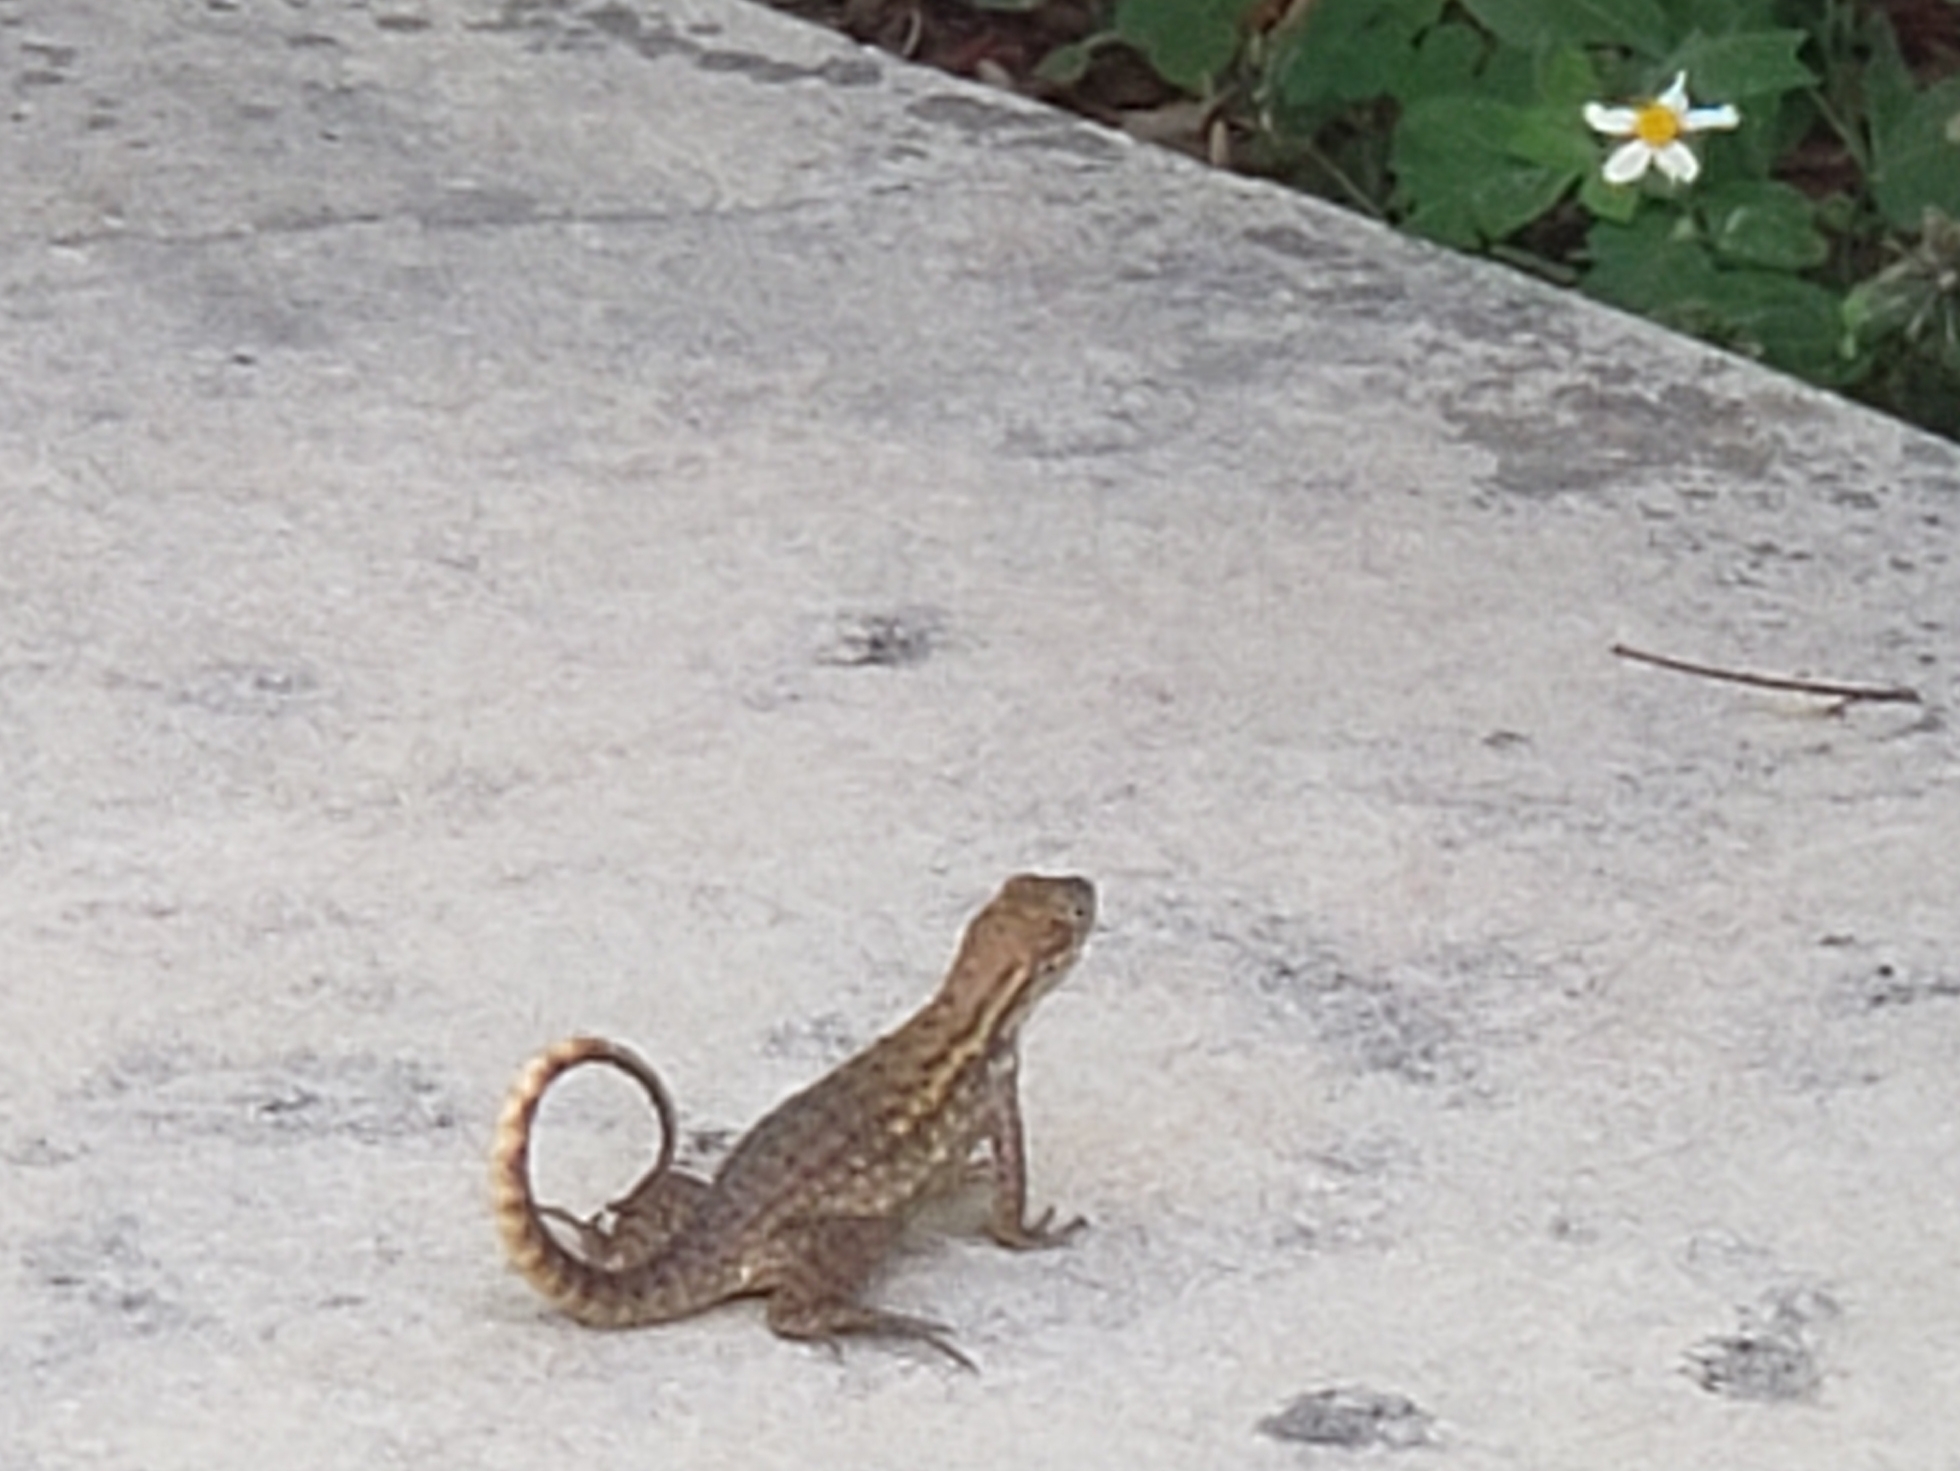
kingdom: Animalia
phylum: Chordata
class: Squamata
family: Leiocephalidae
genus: Leiocephalus
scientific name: Leiocephalus carinatus
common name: Northern curly-tailed lizard
